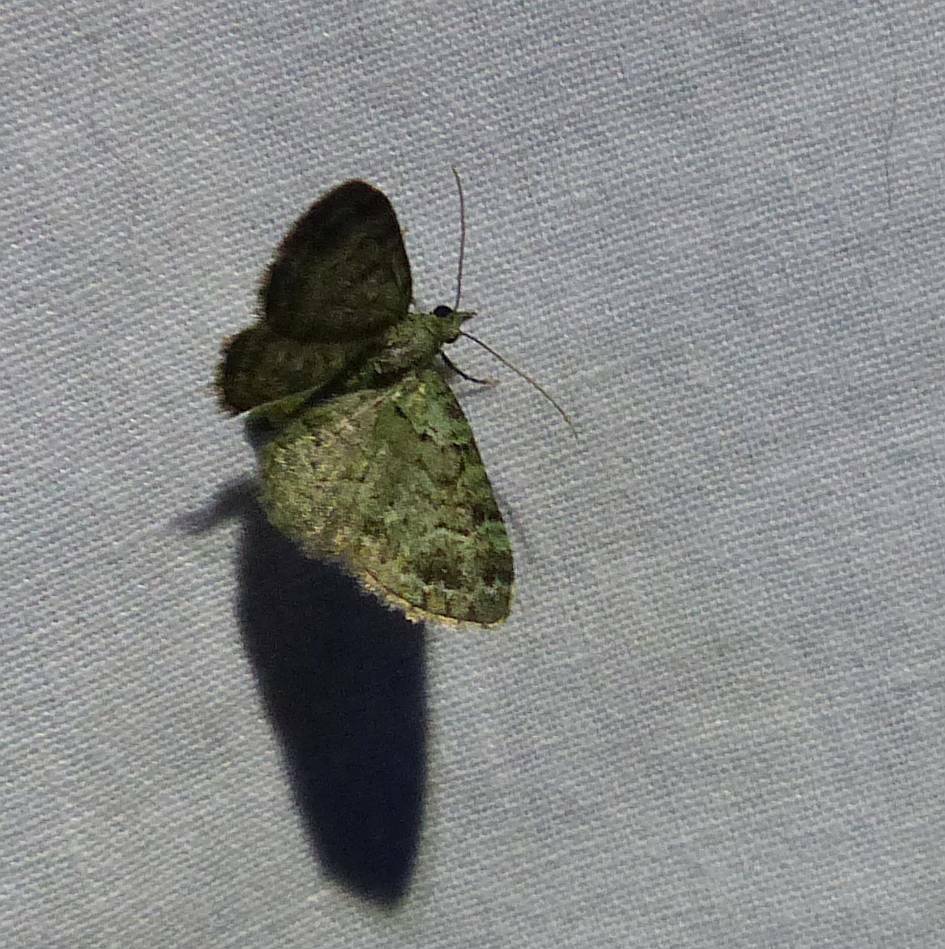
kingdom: Animalia
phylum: Arthropoda
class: Insecta
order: Lepidoptera
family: Geometridae
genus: Pasiphila
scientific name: Pasiphila rectangulata
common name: Green pug
